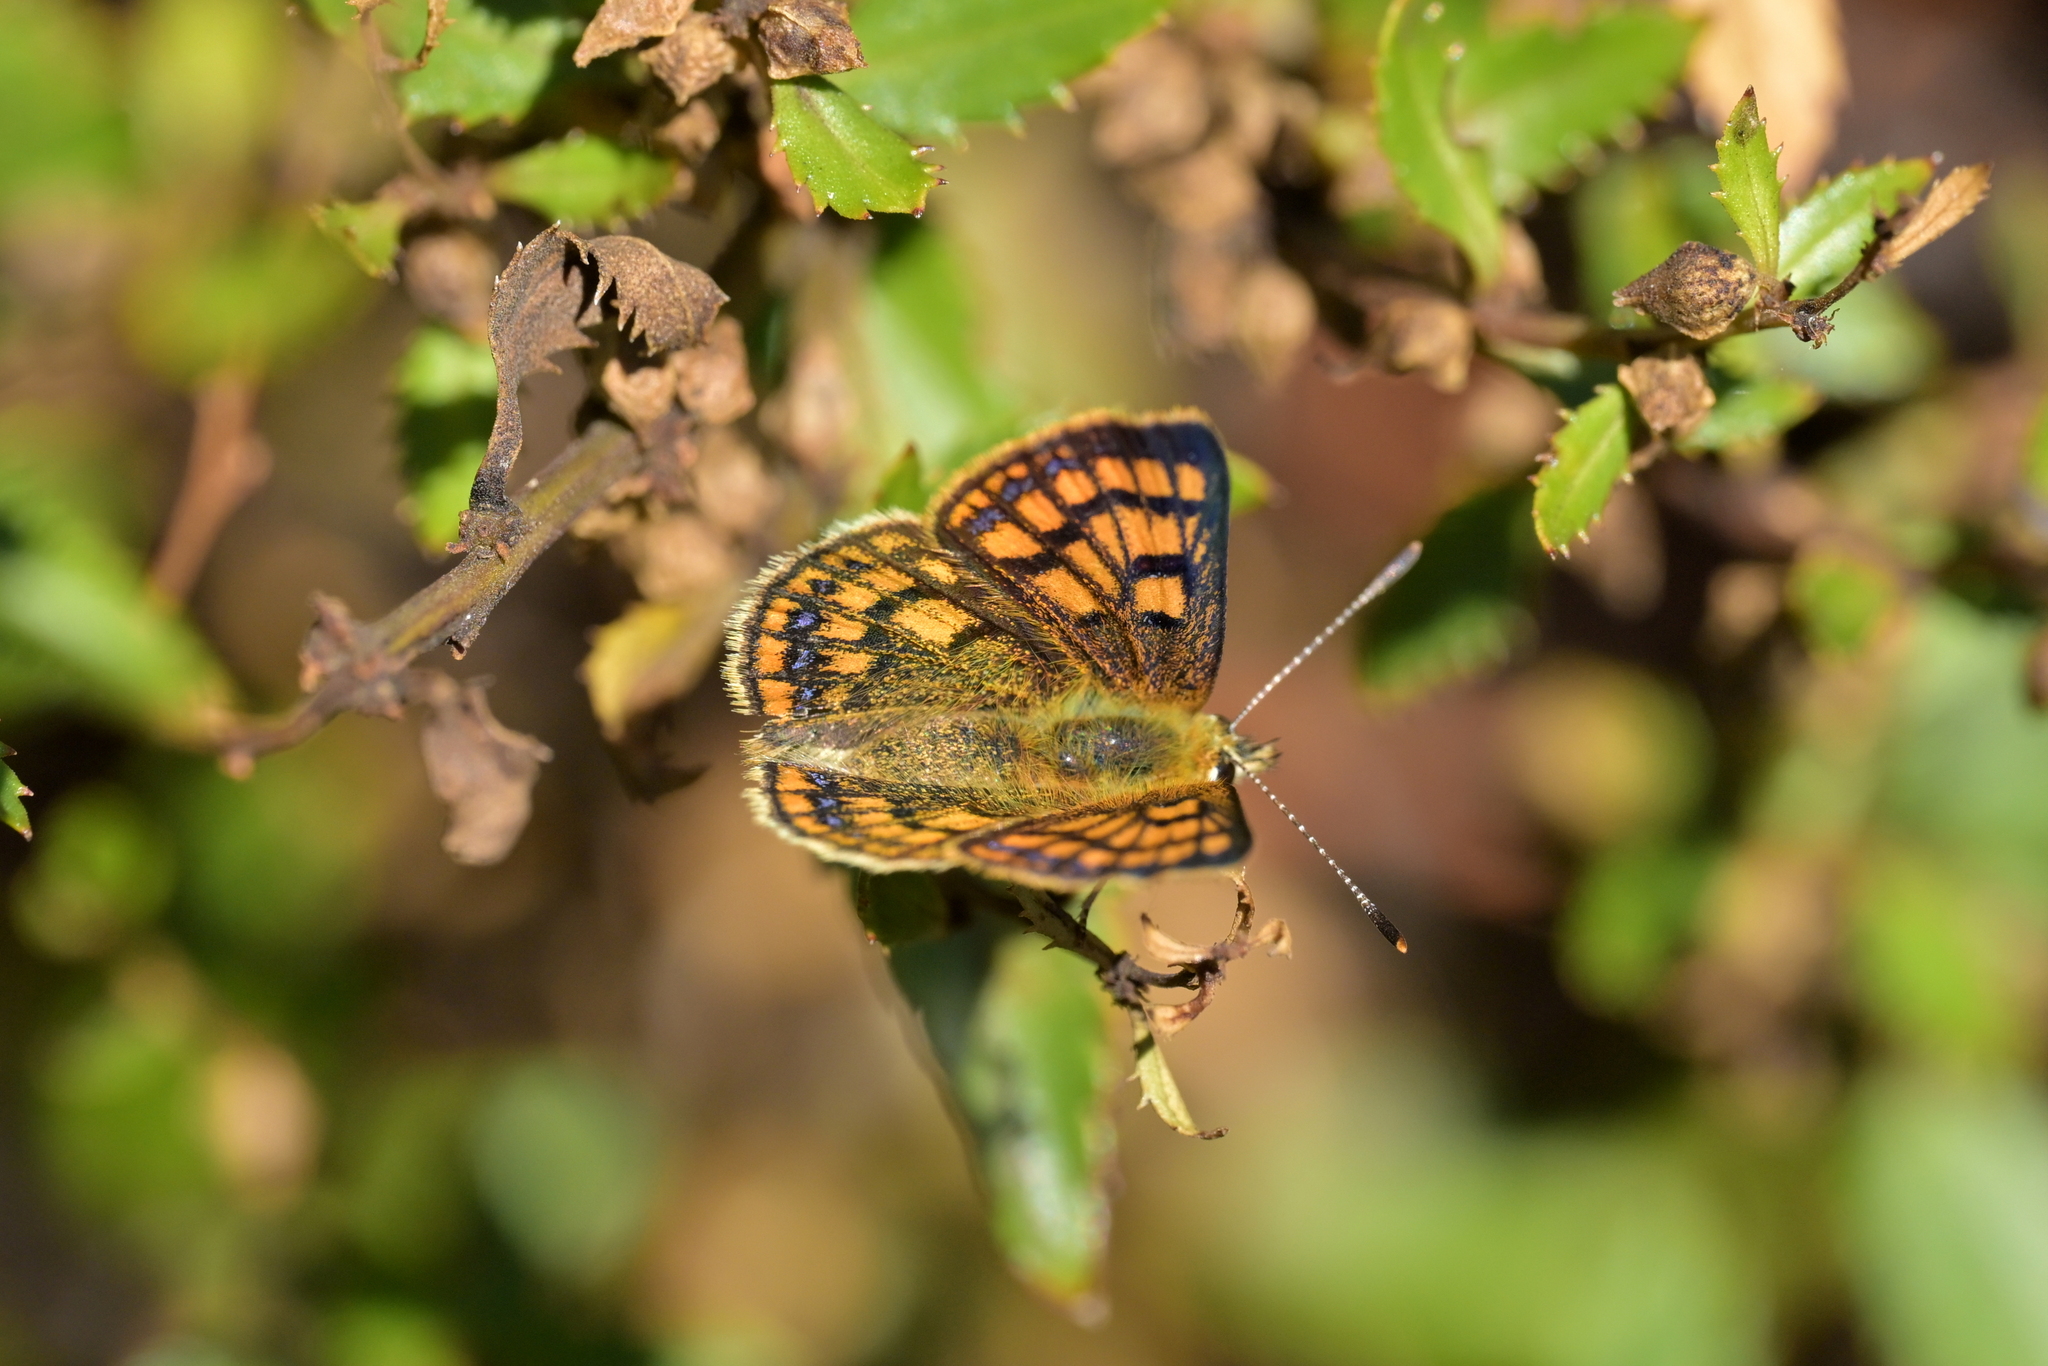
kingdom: Animalia
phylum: Arthropoda
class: Insecta
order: Lepidoptera
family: Lycaenidae
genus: Lycaena
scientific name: Lycaena salustius
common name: North island coastal copper
